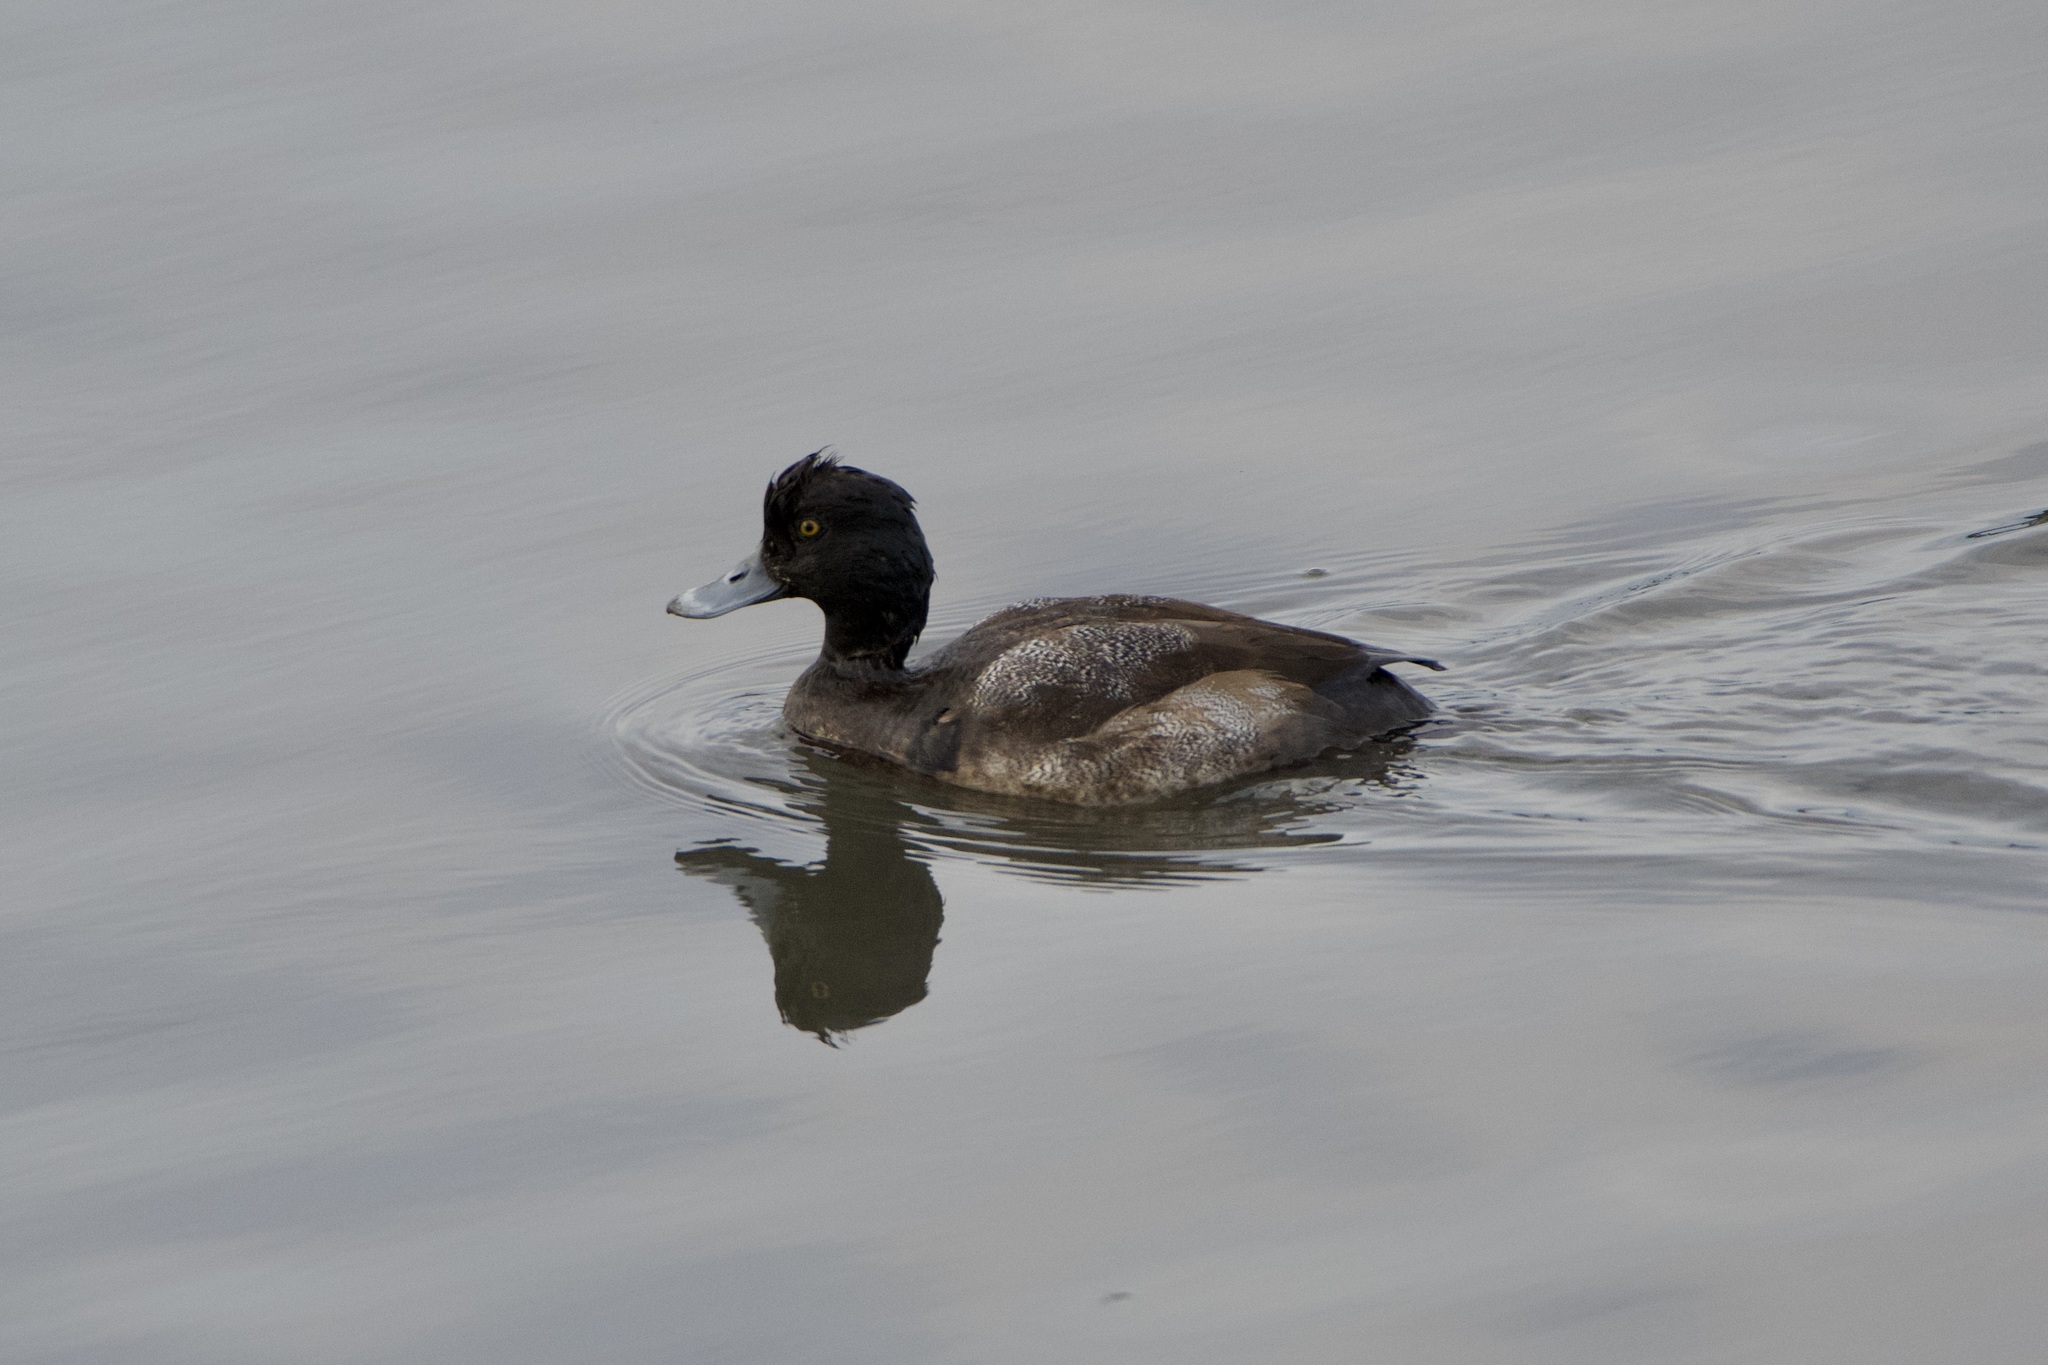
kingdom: Animalia
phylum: Chordata
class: Aves
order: Anseriformes
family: Anatidae
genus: Aythya
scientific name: Aythya affinis
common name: Lesser scaup
